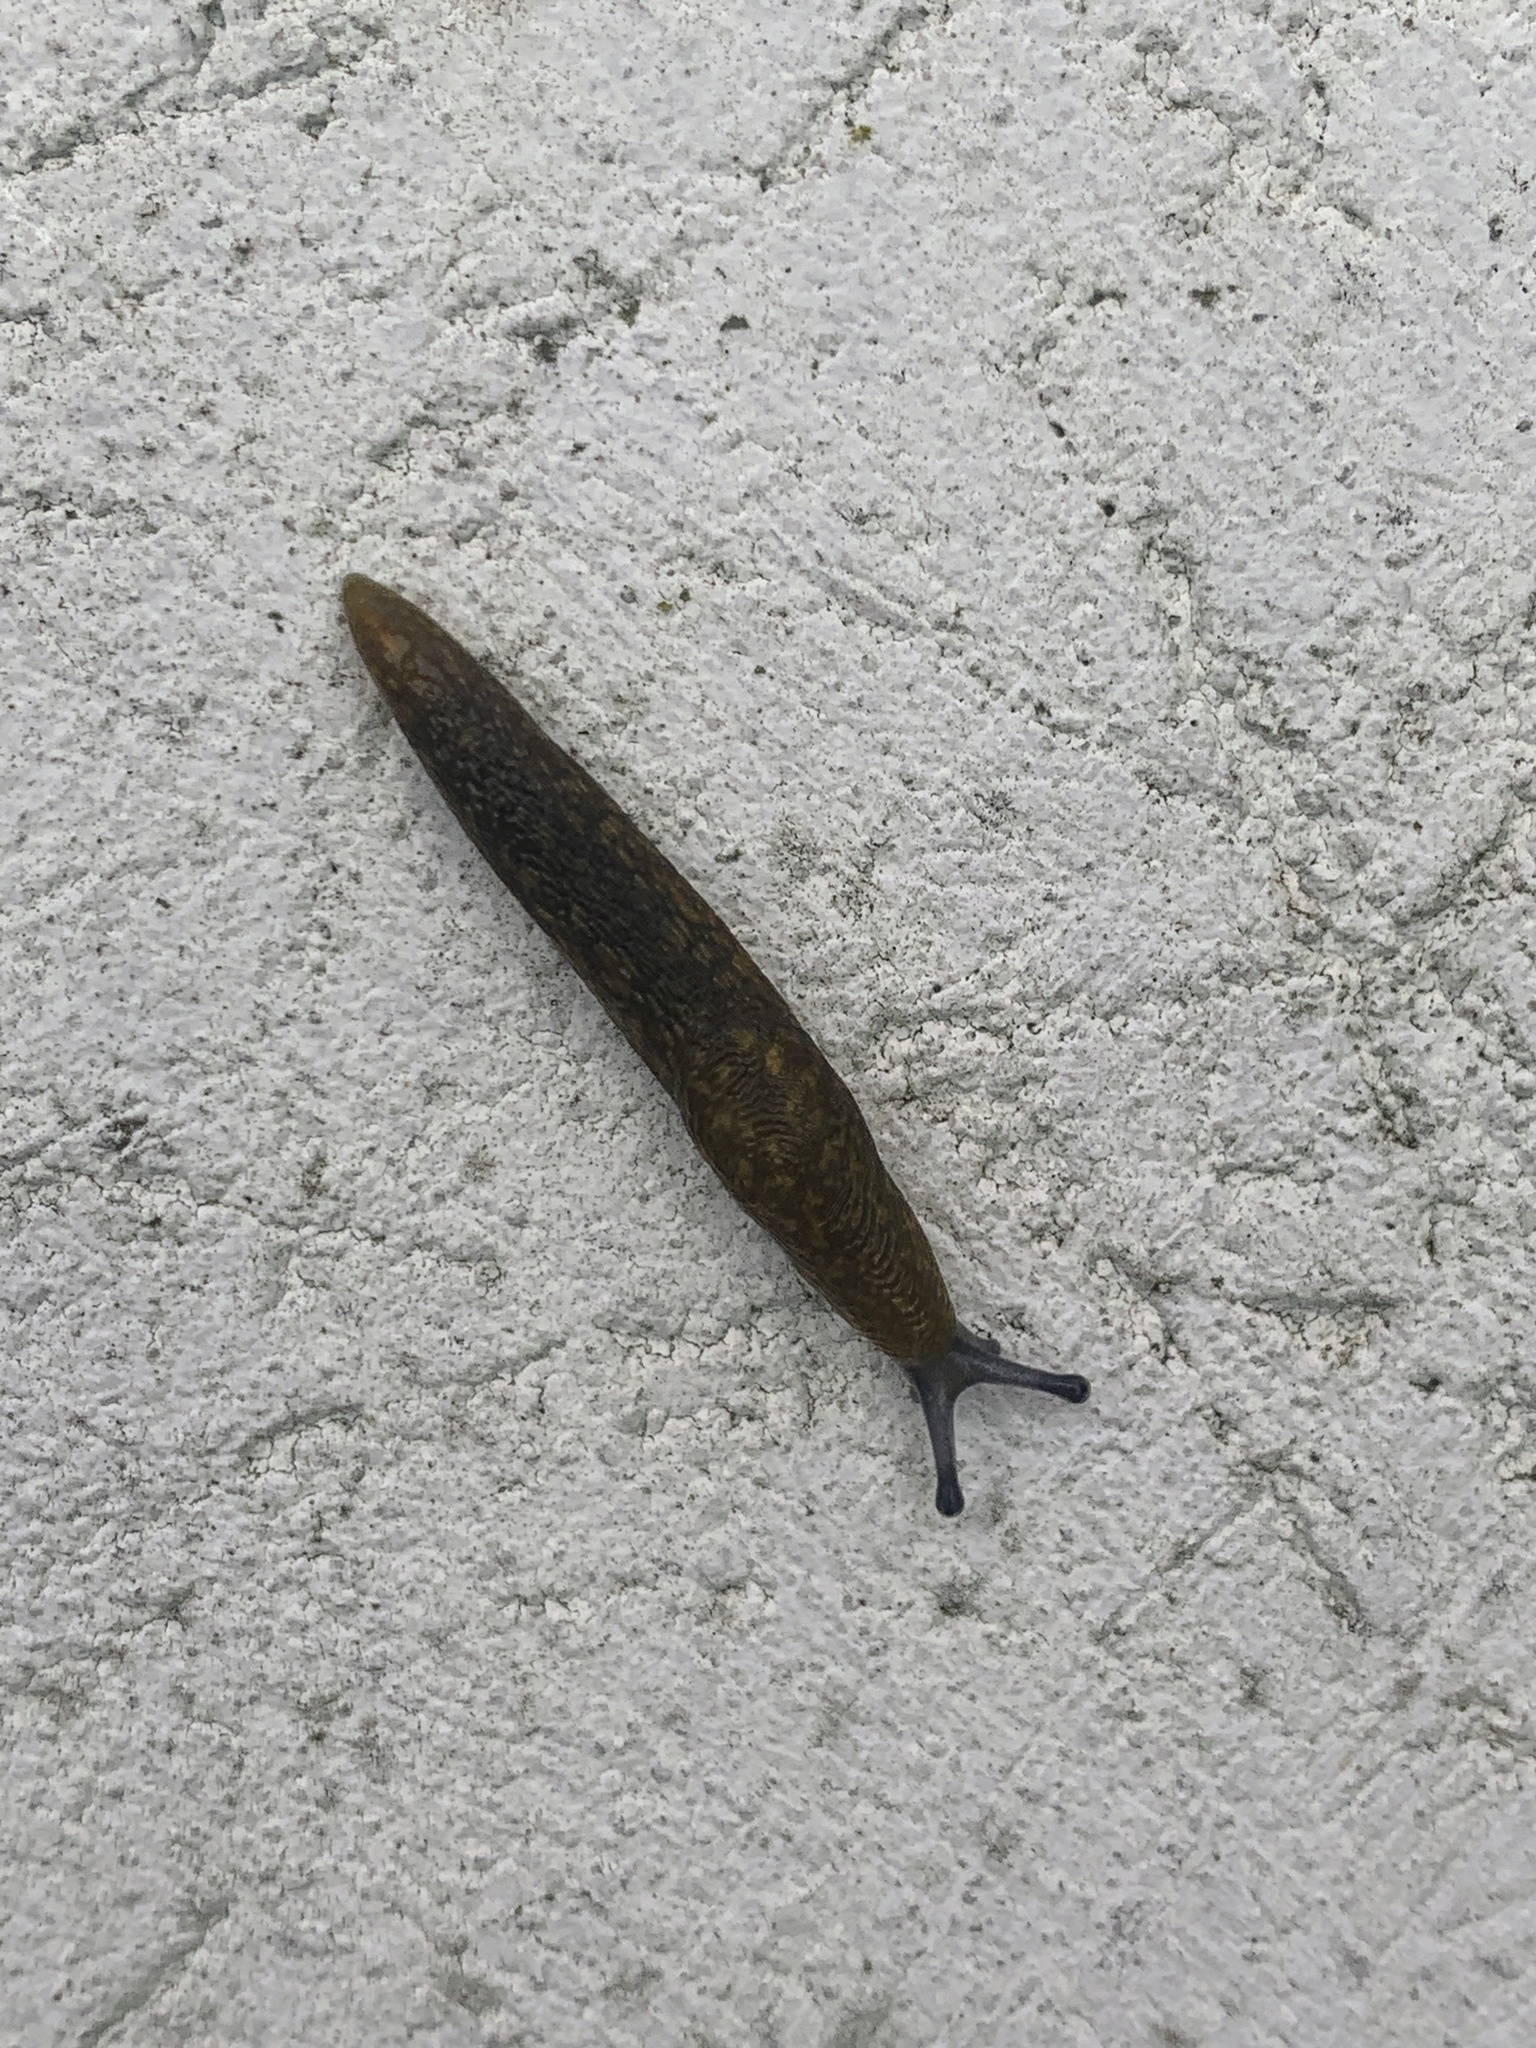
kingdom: Animalia
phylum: Mollusca
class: Gastropoda
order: Stylommatophora
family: Limacidae
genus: Limacus
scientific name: Limacus flavus
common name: Yellow gardenslug
